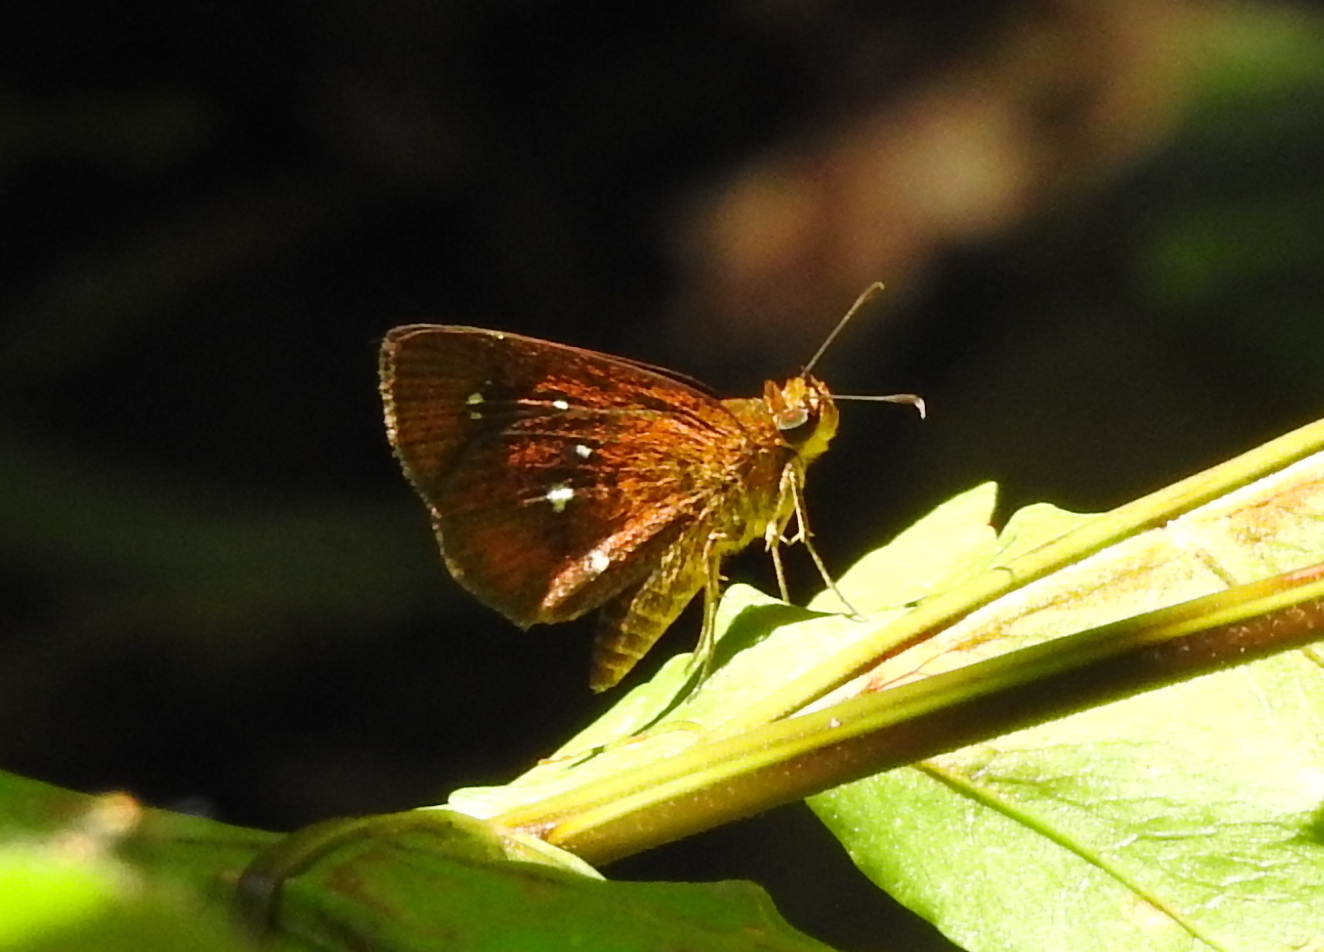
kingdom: Animalia
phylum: Arthropoda
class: Insecta
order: Lepidoptera
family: Hesperiidae
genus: Iambrix
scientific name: Iambrix salsala
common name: Chestnut bob
